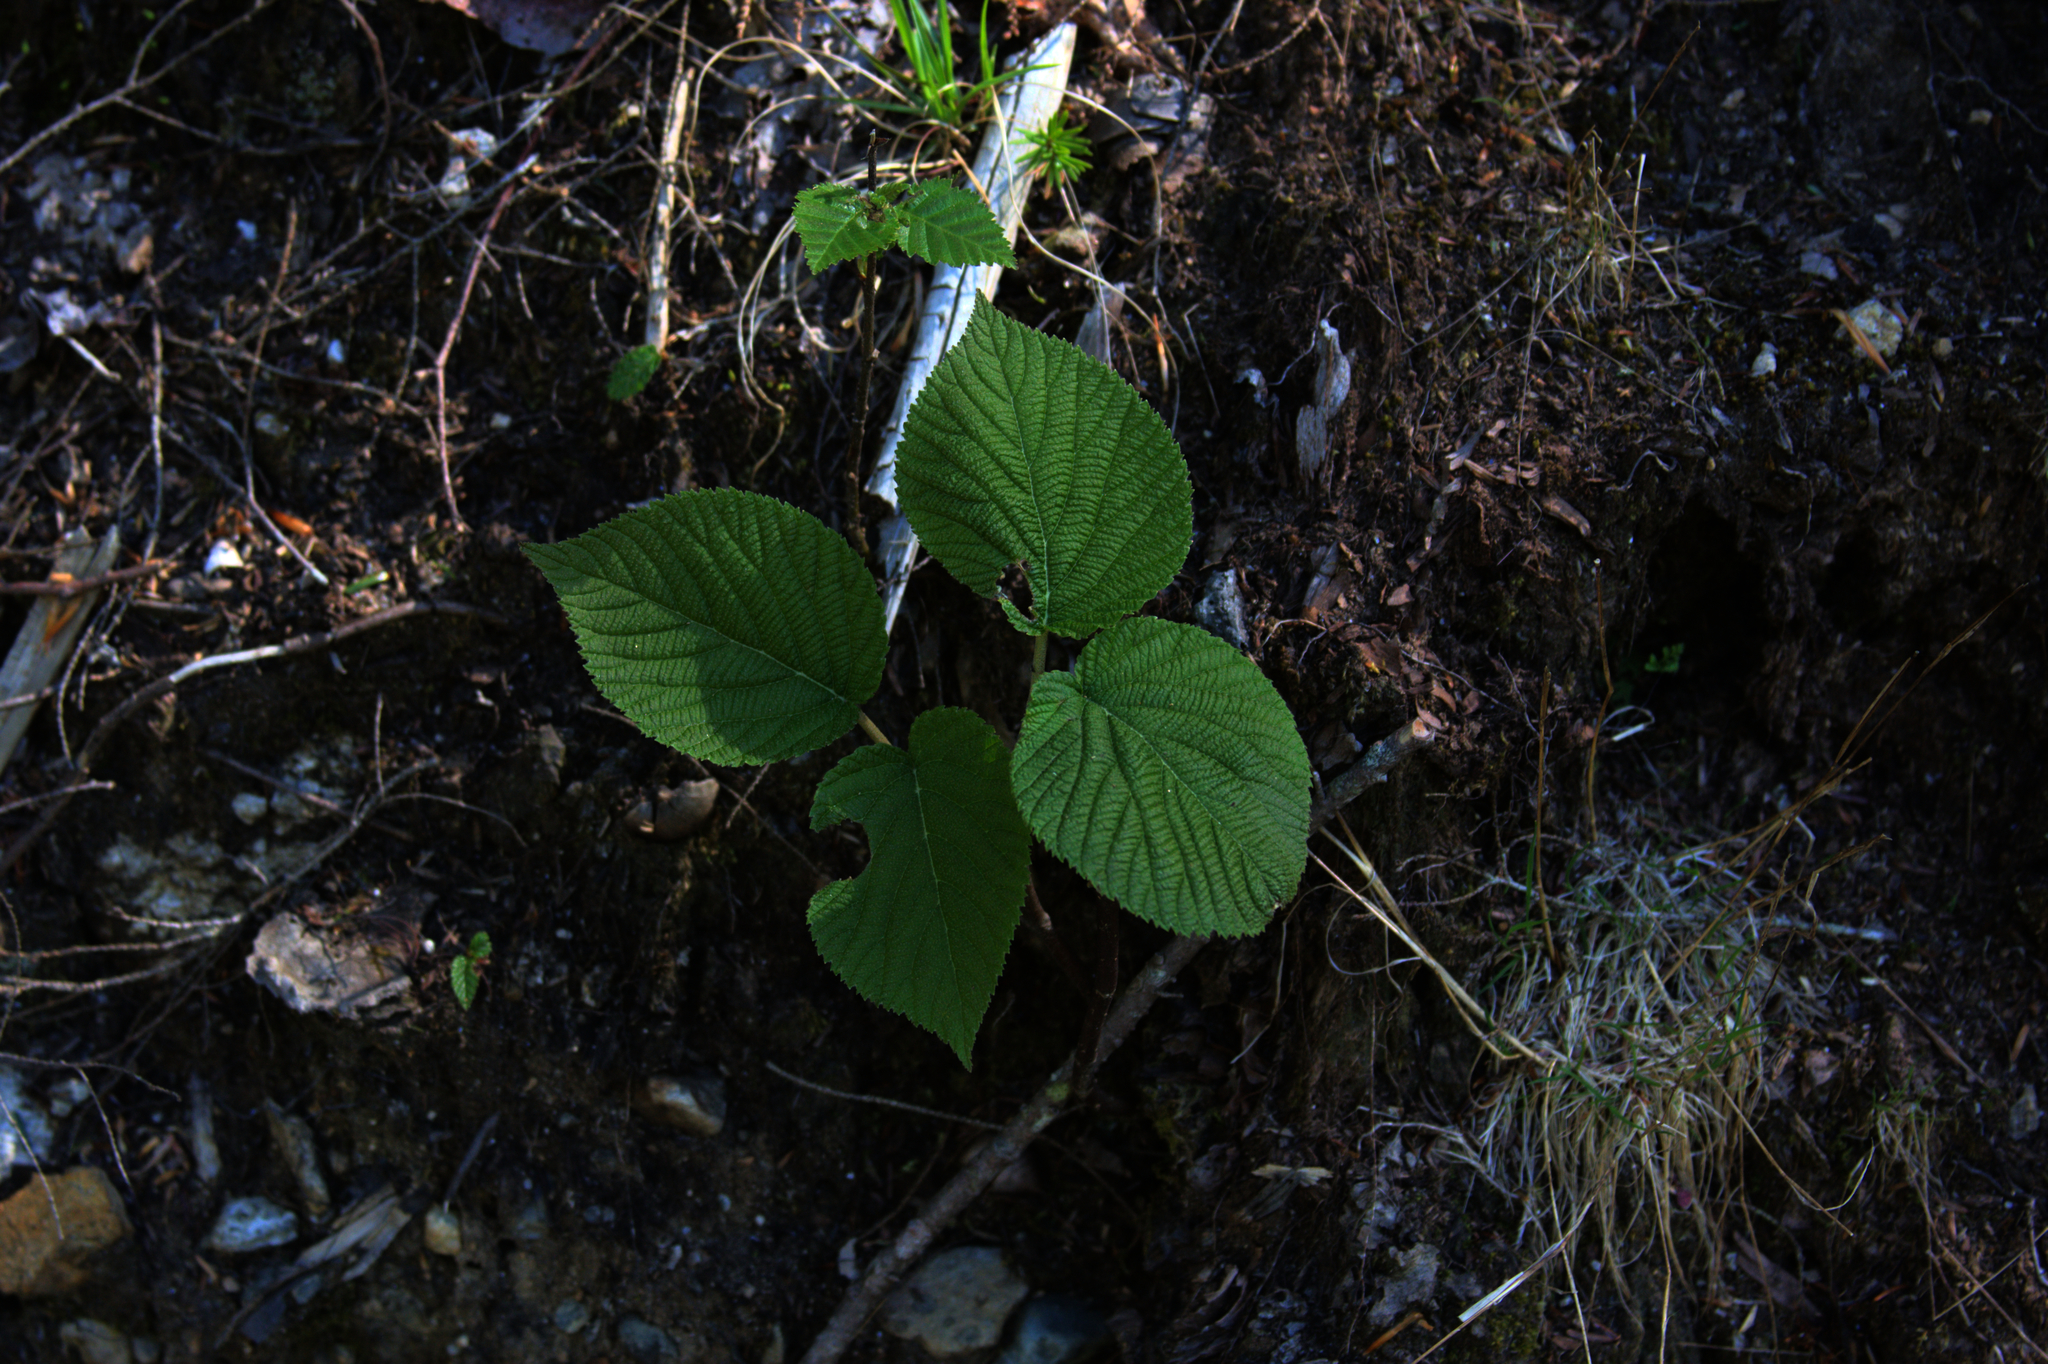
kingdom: Plantae
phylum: Tracheophyta
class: Magnoliopsida
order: Dipsacales
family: Viburnaceae
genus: Viburnum
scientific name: Viburnum lantanoides
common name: Hobblebush
